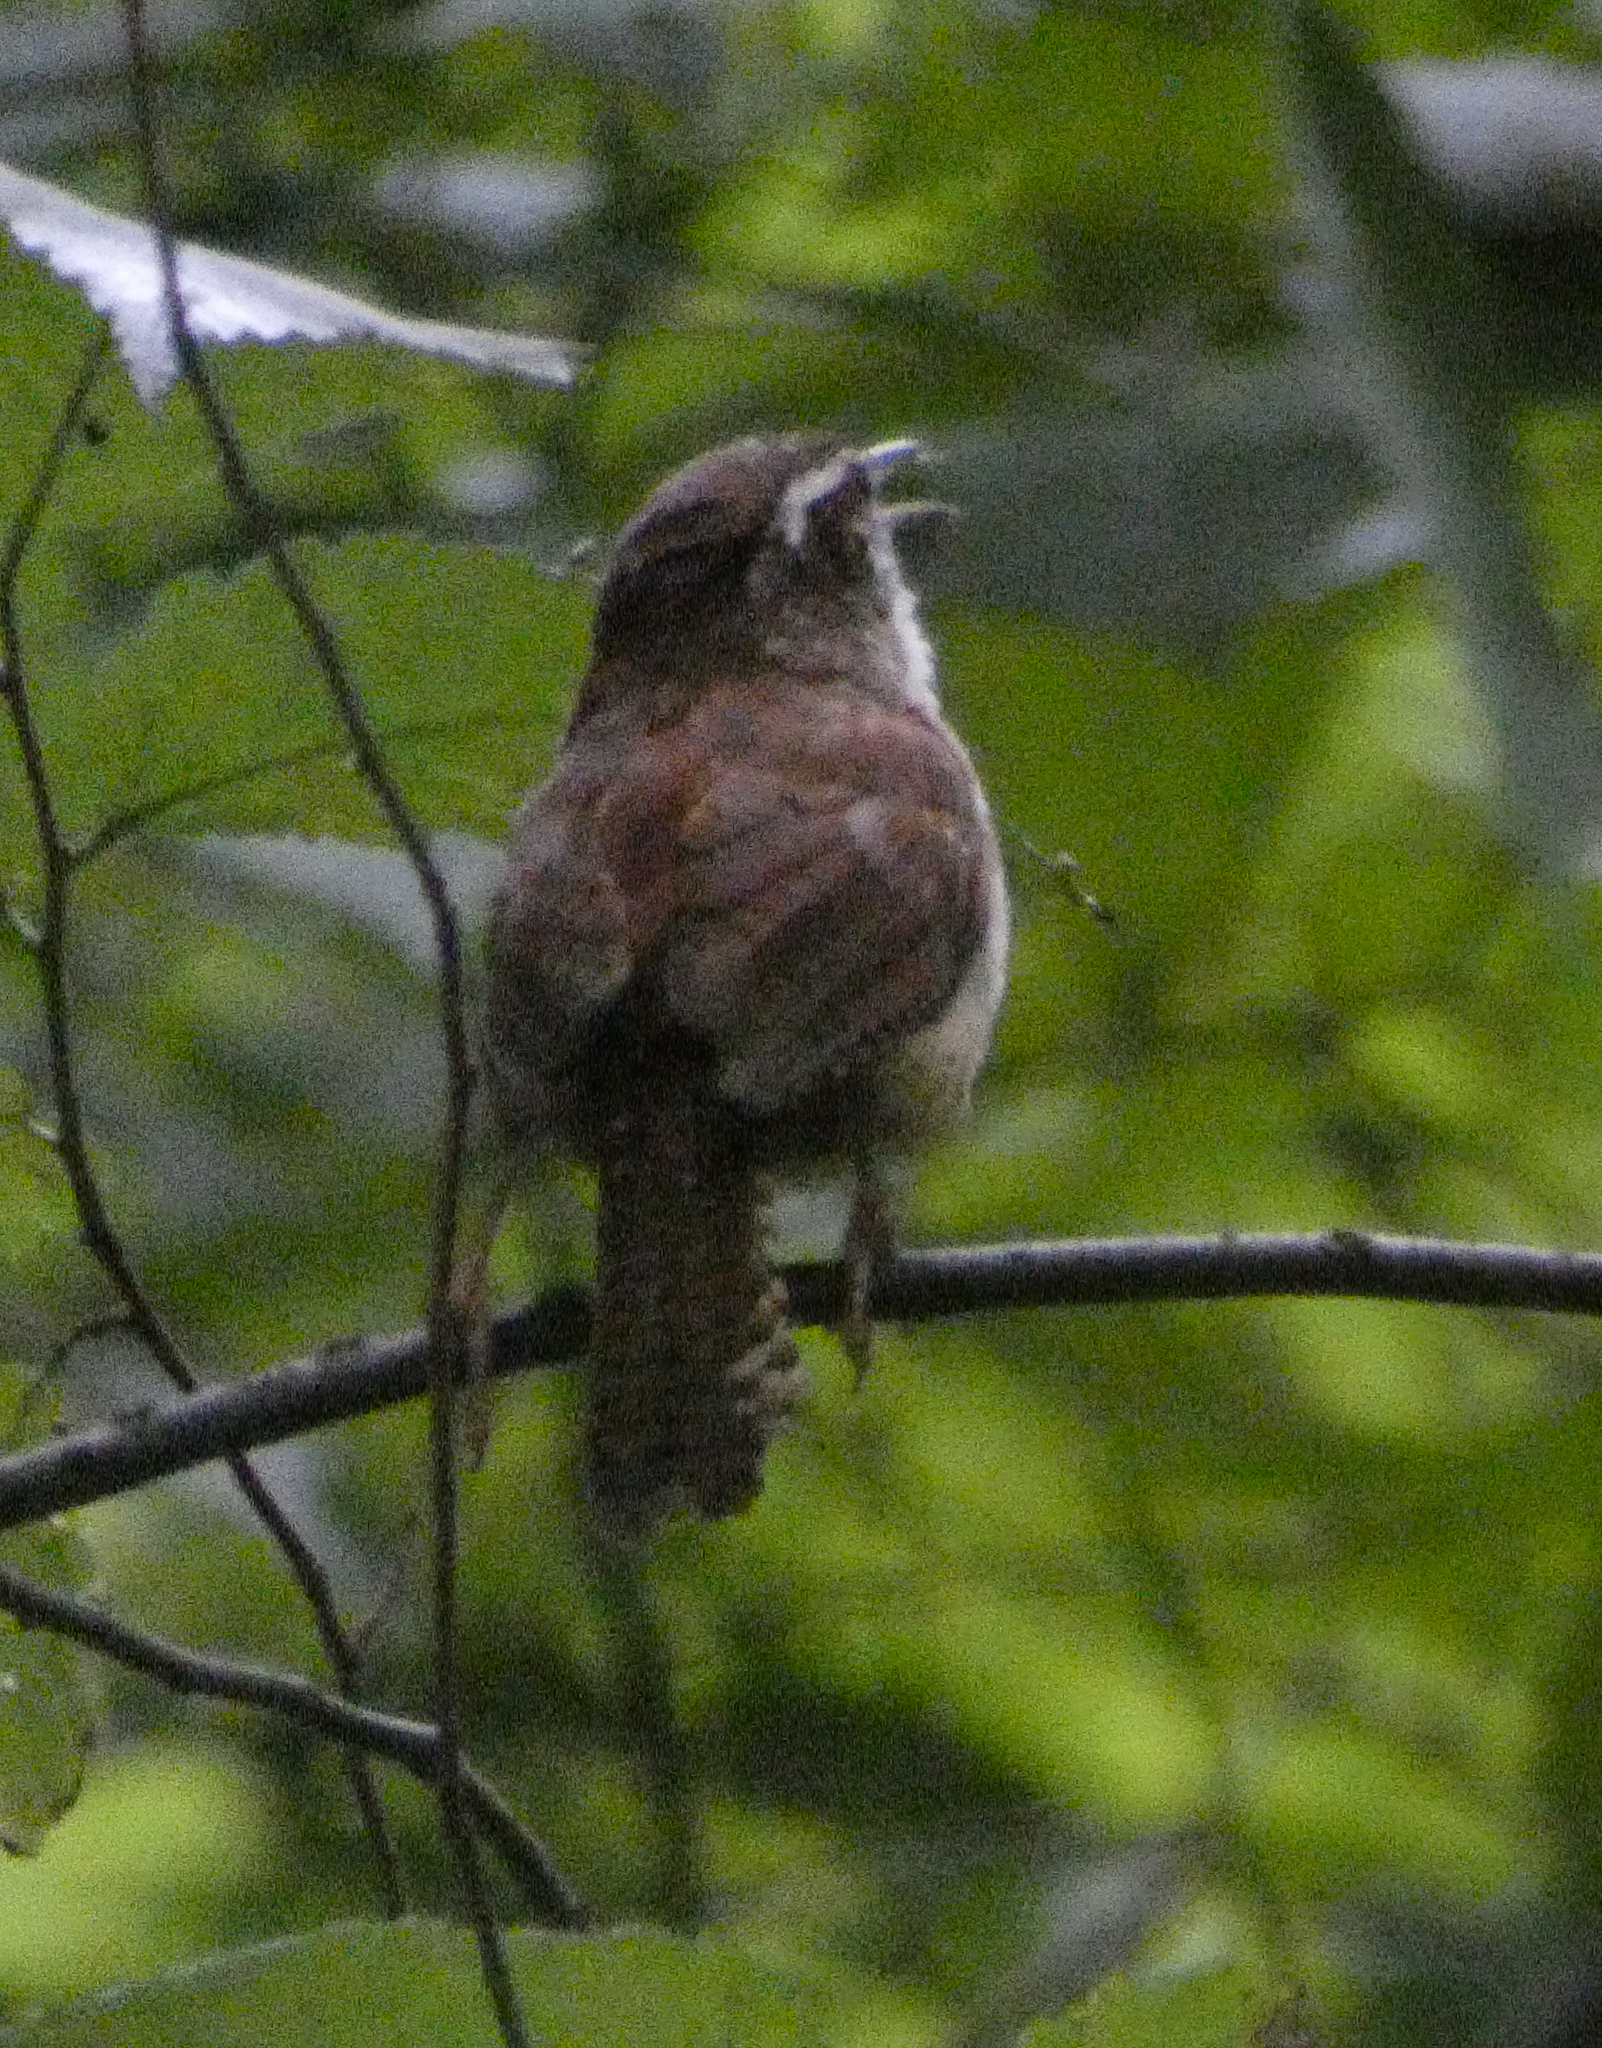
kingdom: Animalia
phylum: Chordata
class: Aves
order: Passeriformes
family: Troglodytidae
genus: Thryothorus
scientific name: Thryothorus ludovicianus
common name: Carolina wren
